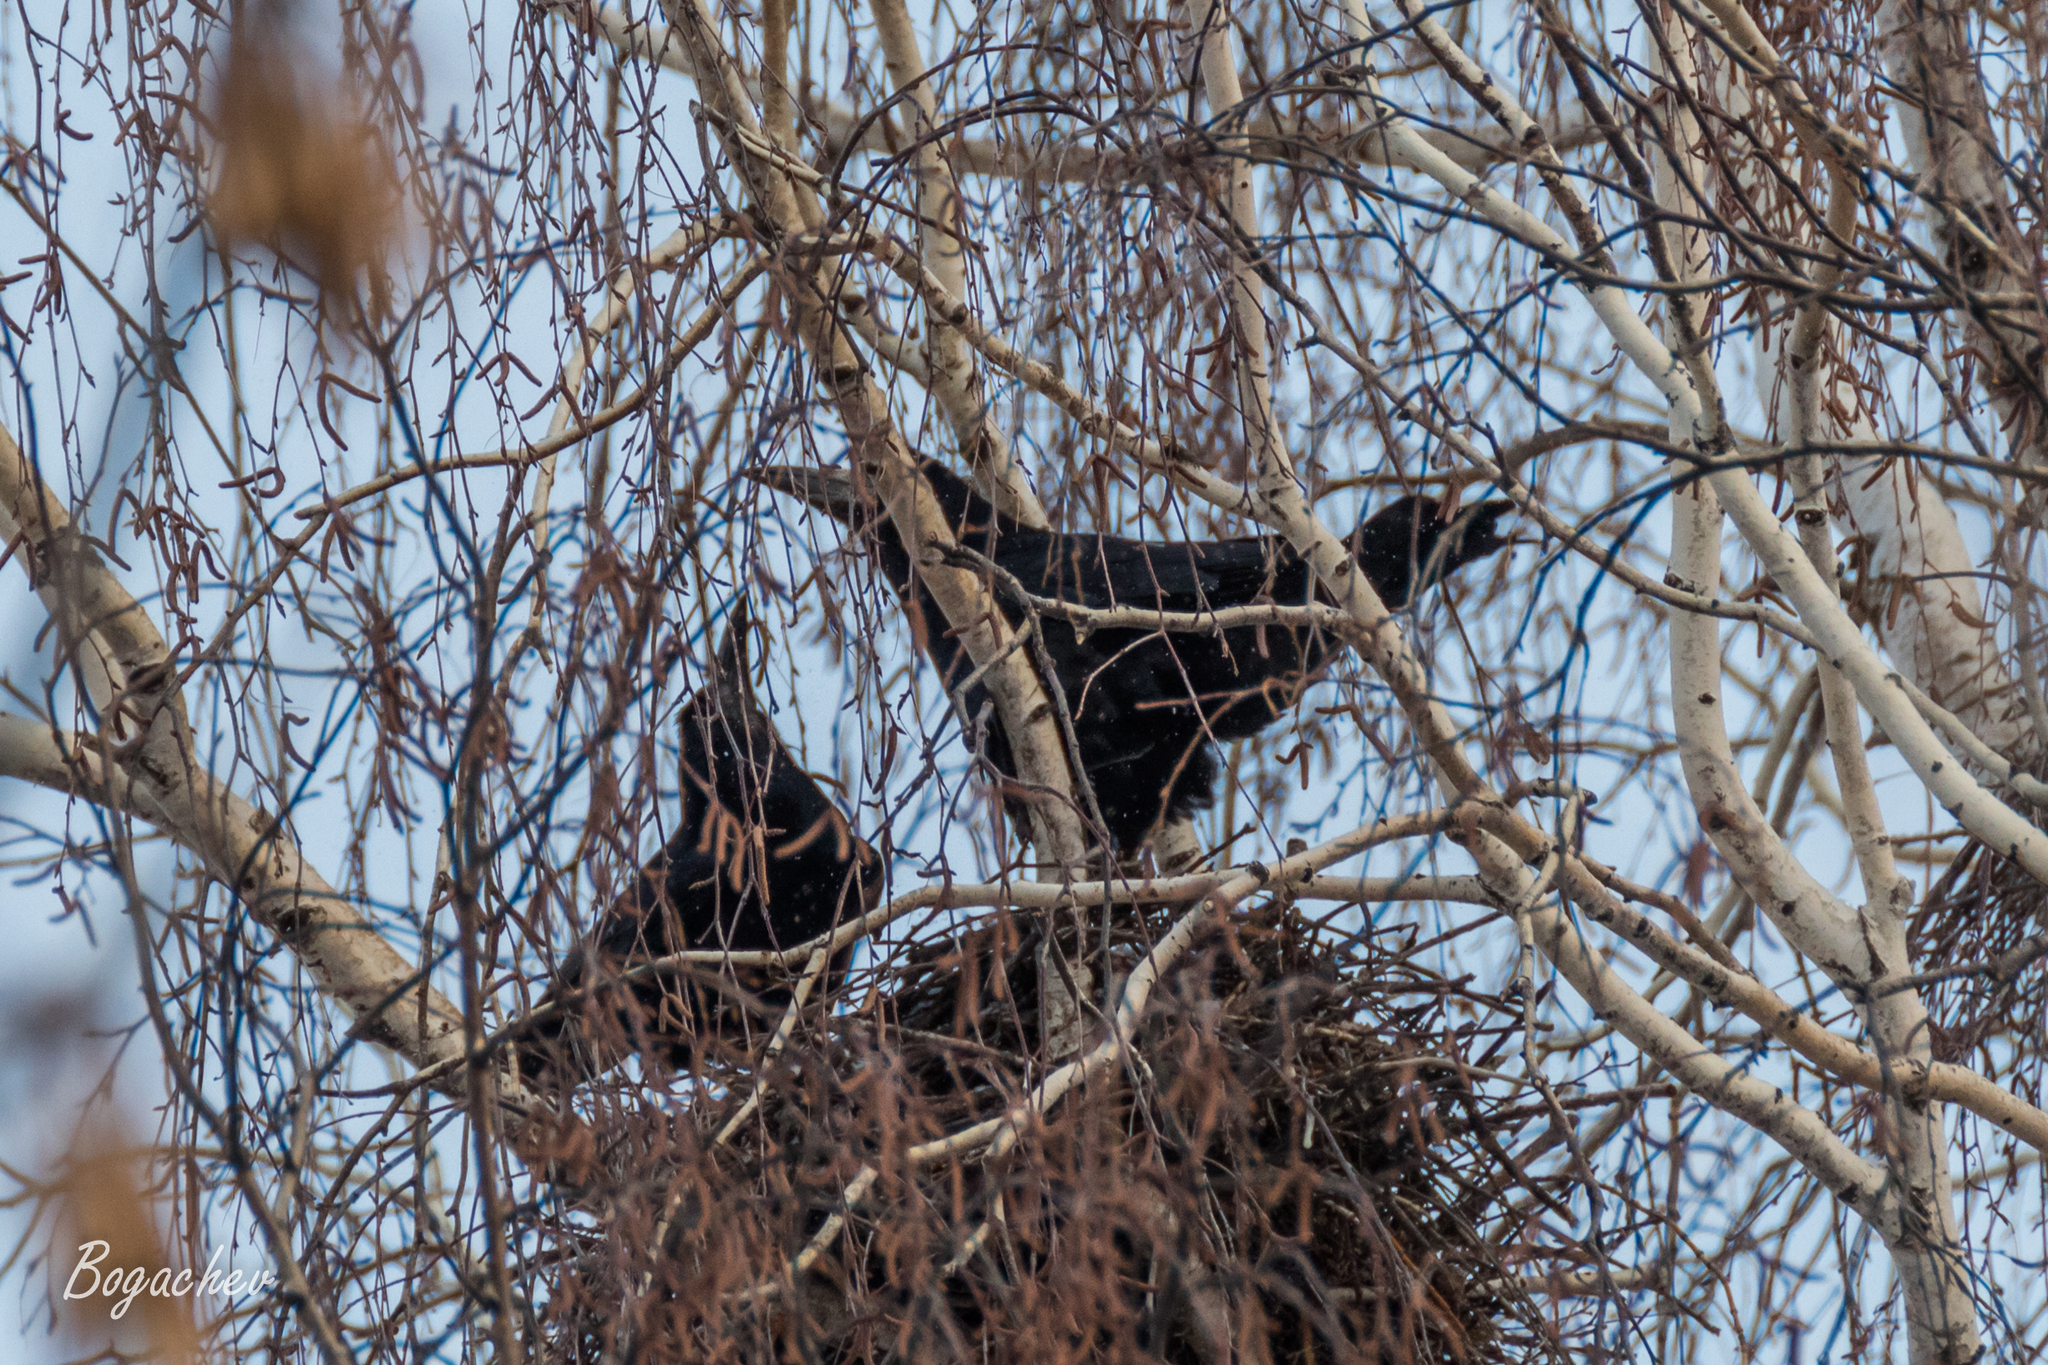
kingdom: Animalia
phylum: Chordata
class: Aves
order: Passeriformes
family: Corvidae
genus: Corvus
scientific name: Corvus frugilegus
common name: Rook
